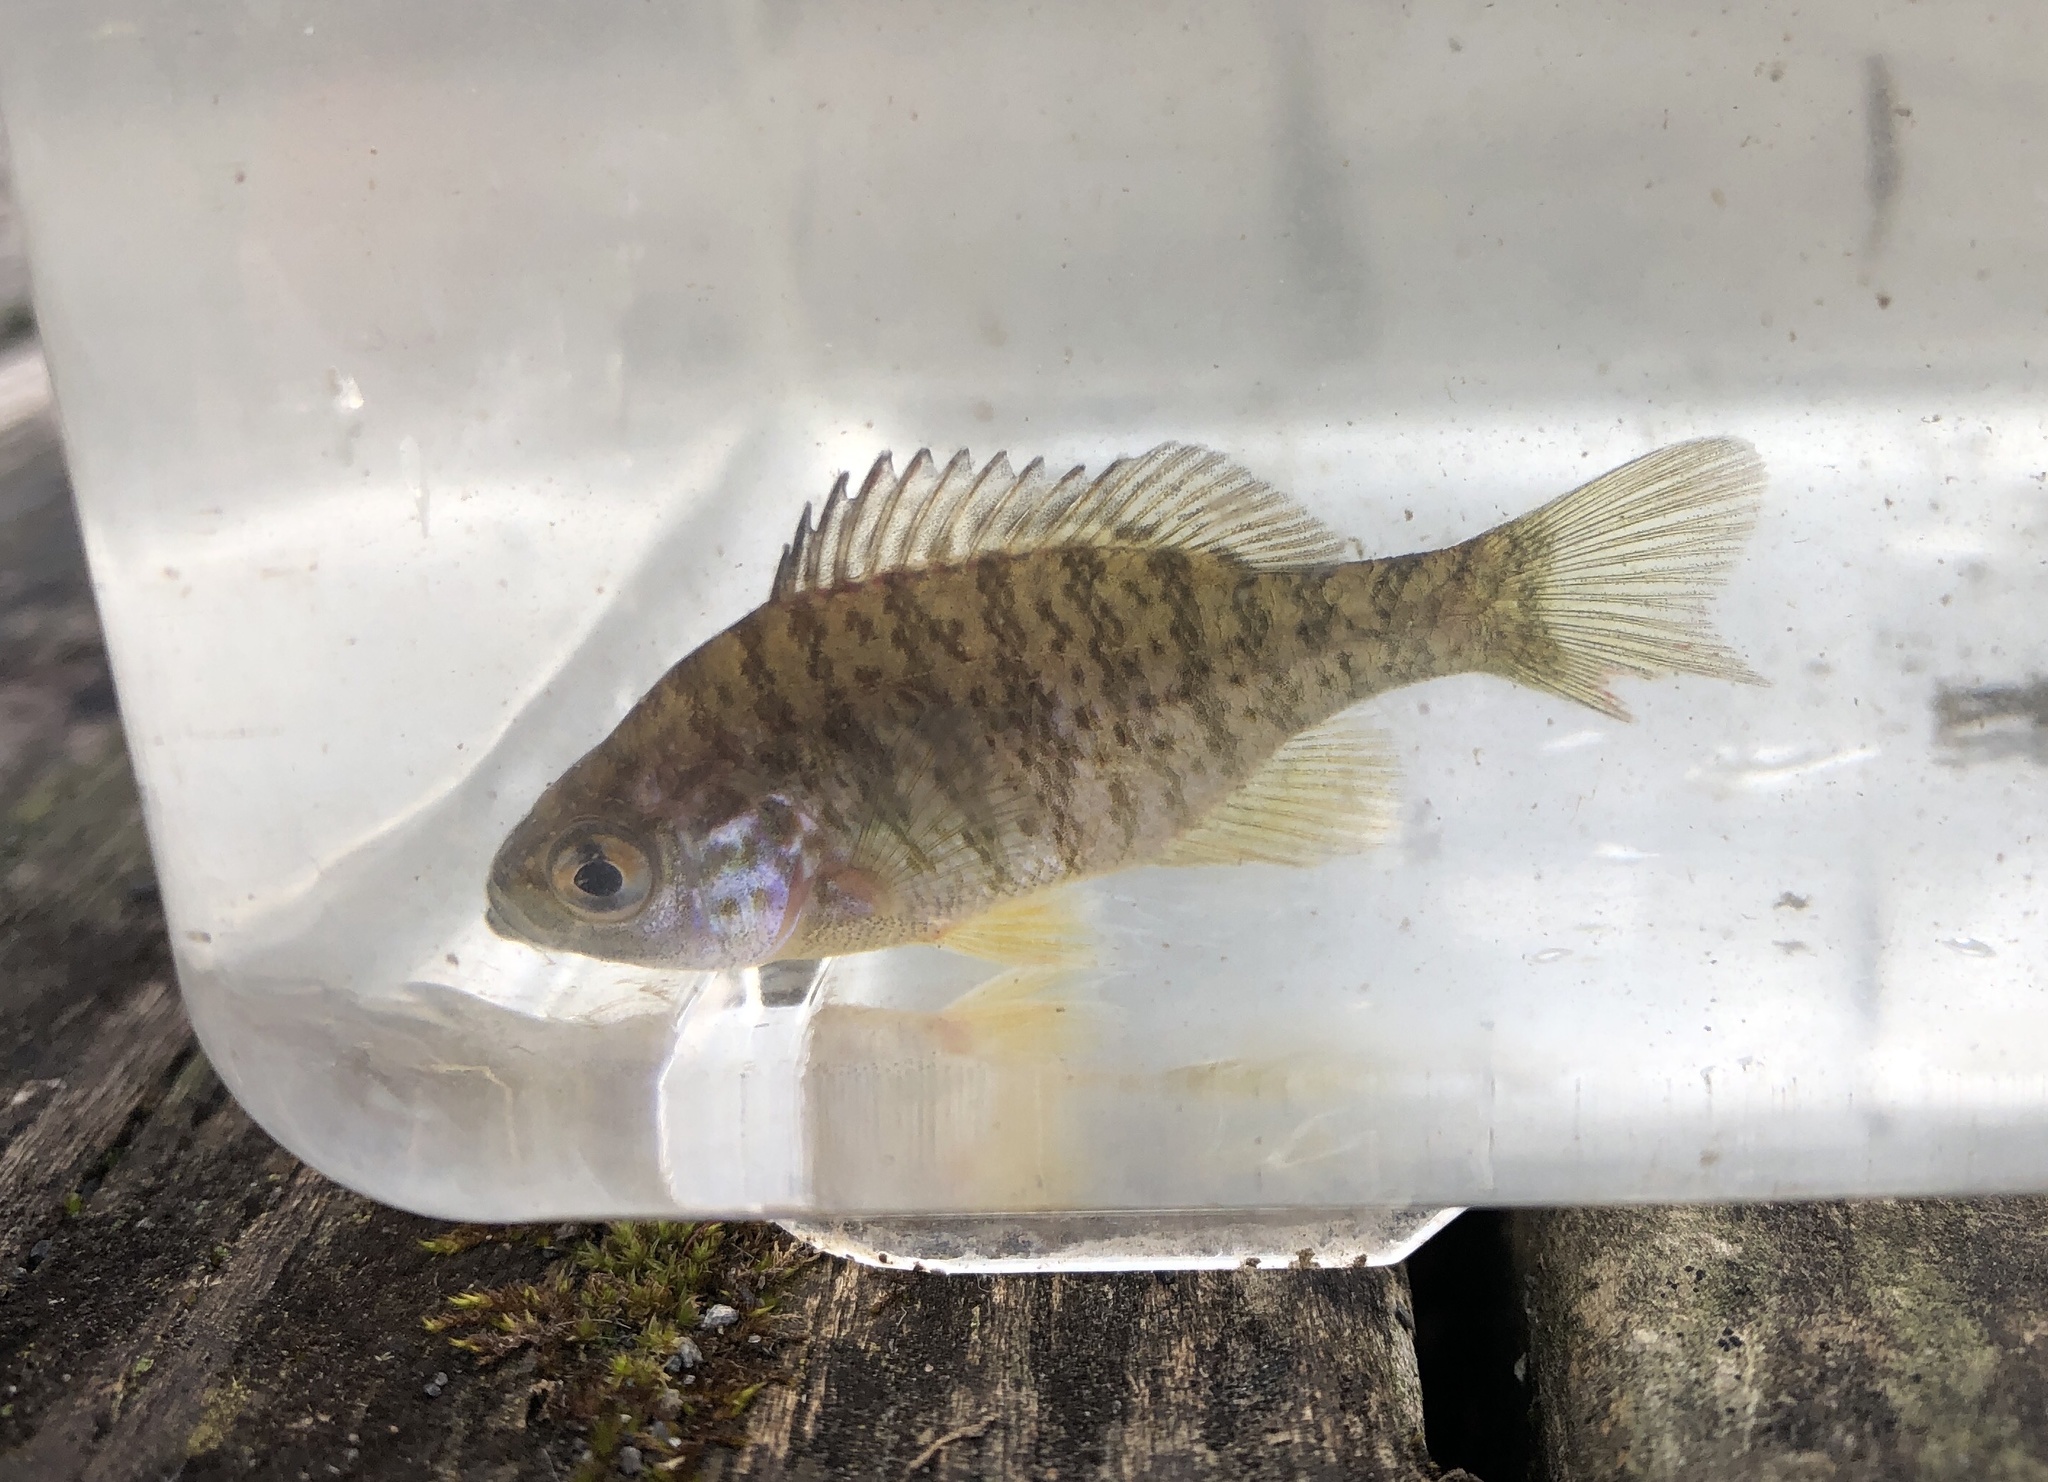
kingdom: Animalia
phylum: Chordata
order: Perciformes
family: Centrarchidae
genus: Lepomis
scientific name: Lepomis gibbosus
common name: Pumpkinseed
